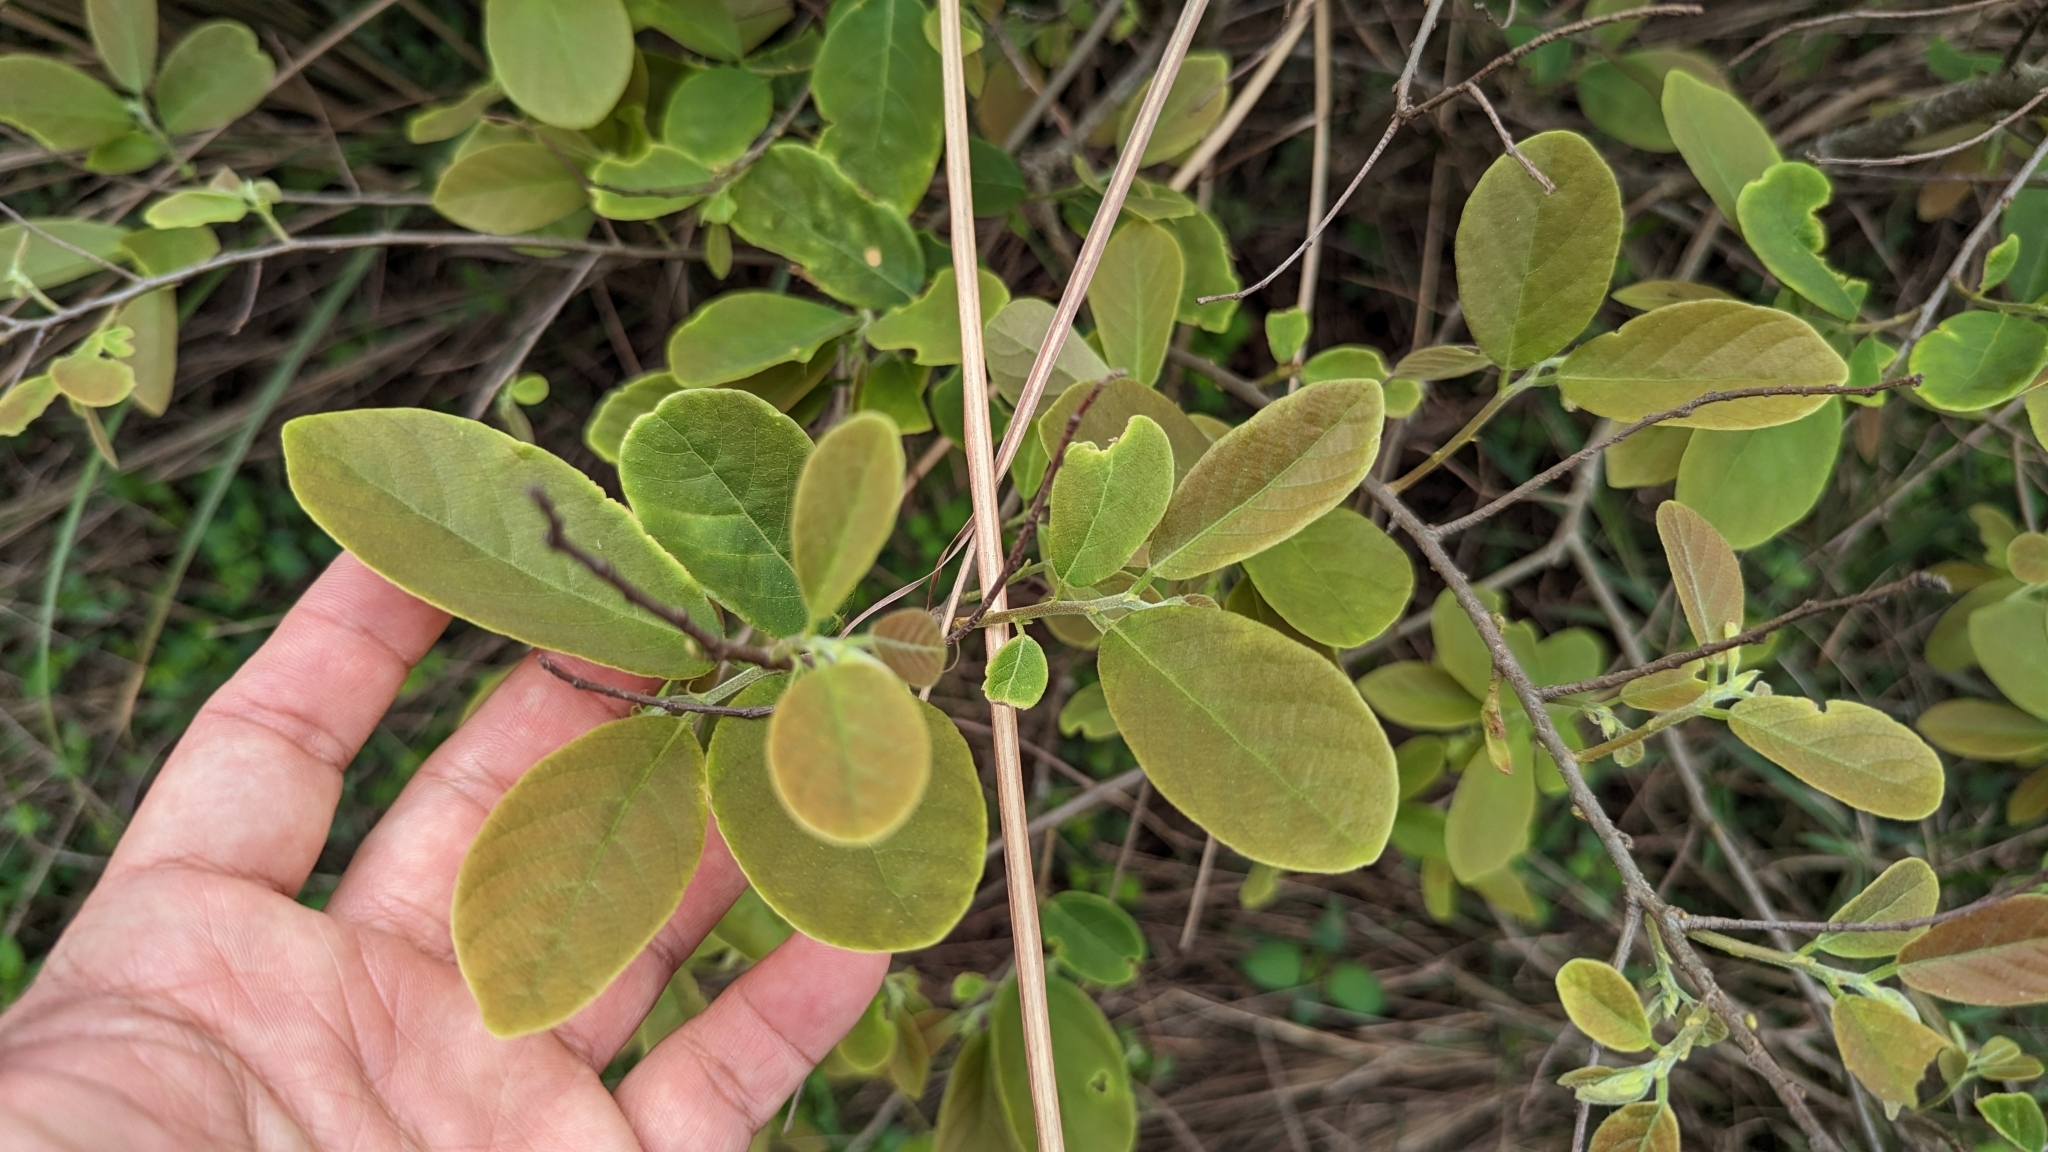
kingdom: Plantae
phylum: Tracheophyta
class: Magnoliopsida
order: Malpighiales
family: Phyllanthaceae
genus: Bridelia
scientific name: Bridelia tomentosa
